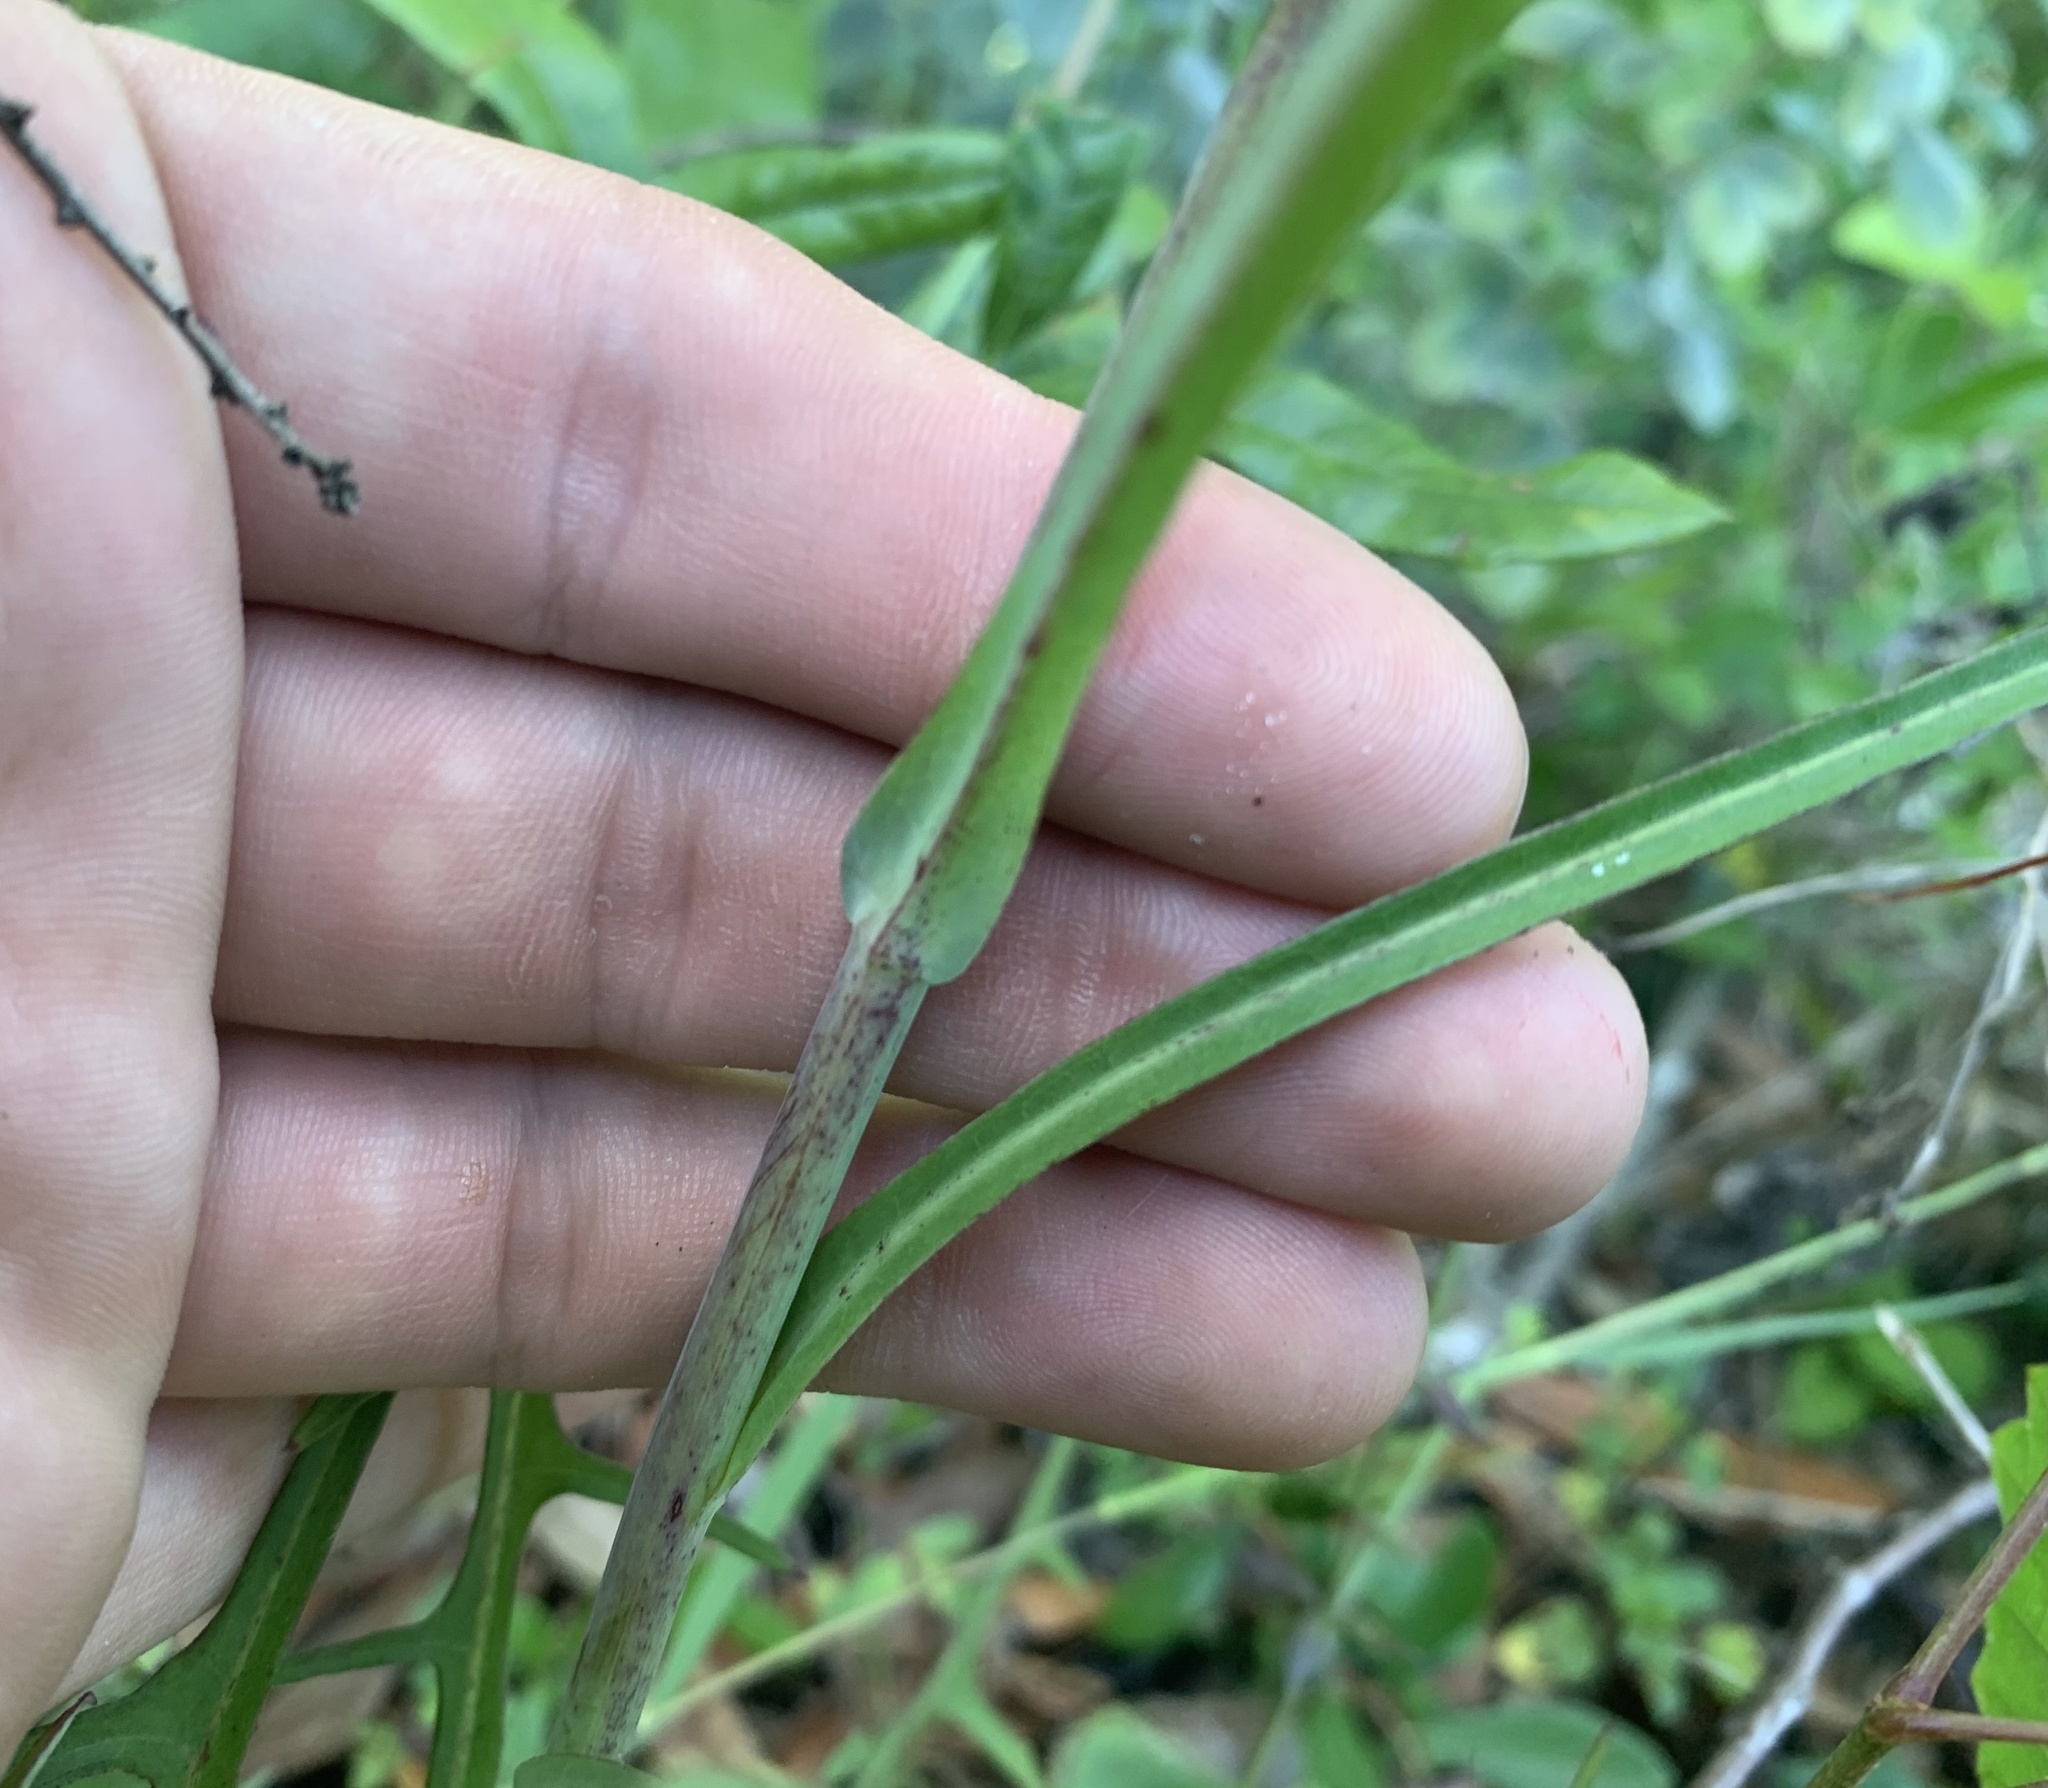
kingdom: Plantae
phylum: Tracheophyta
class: Magnoliopsida
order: Asterales
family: Asteraceae
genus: Lactuca
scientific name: Lactuca graminifolia
